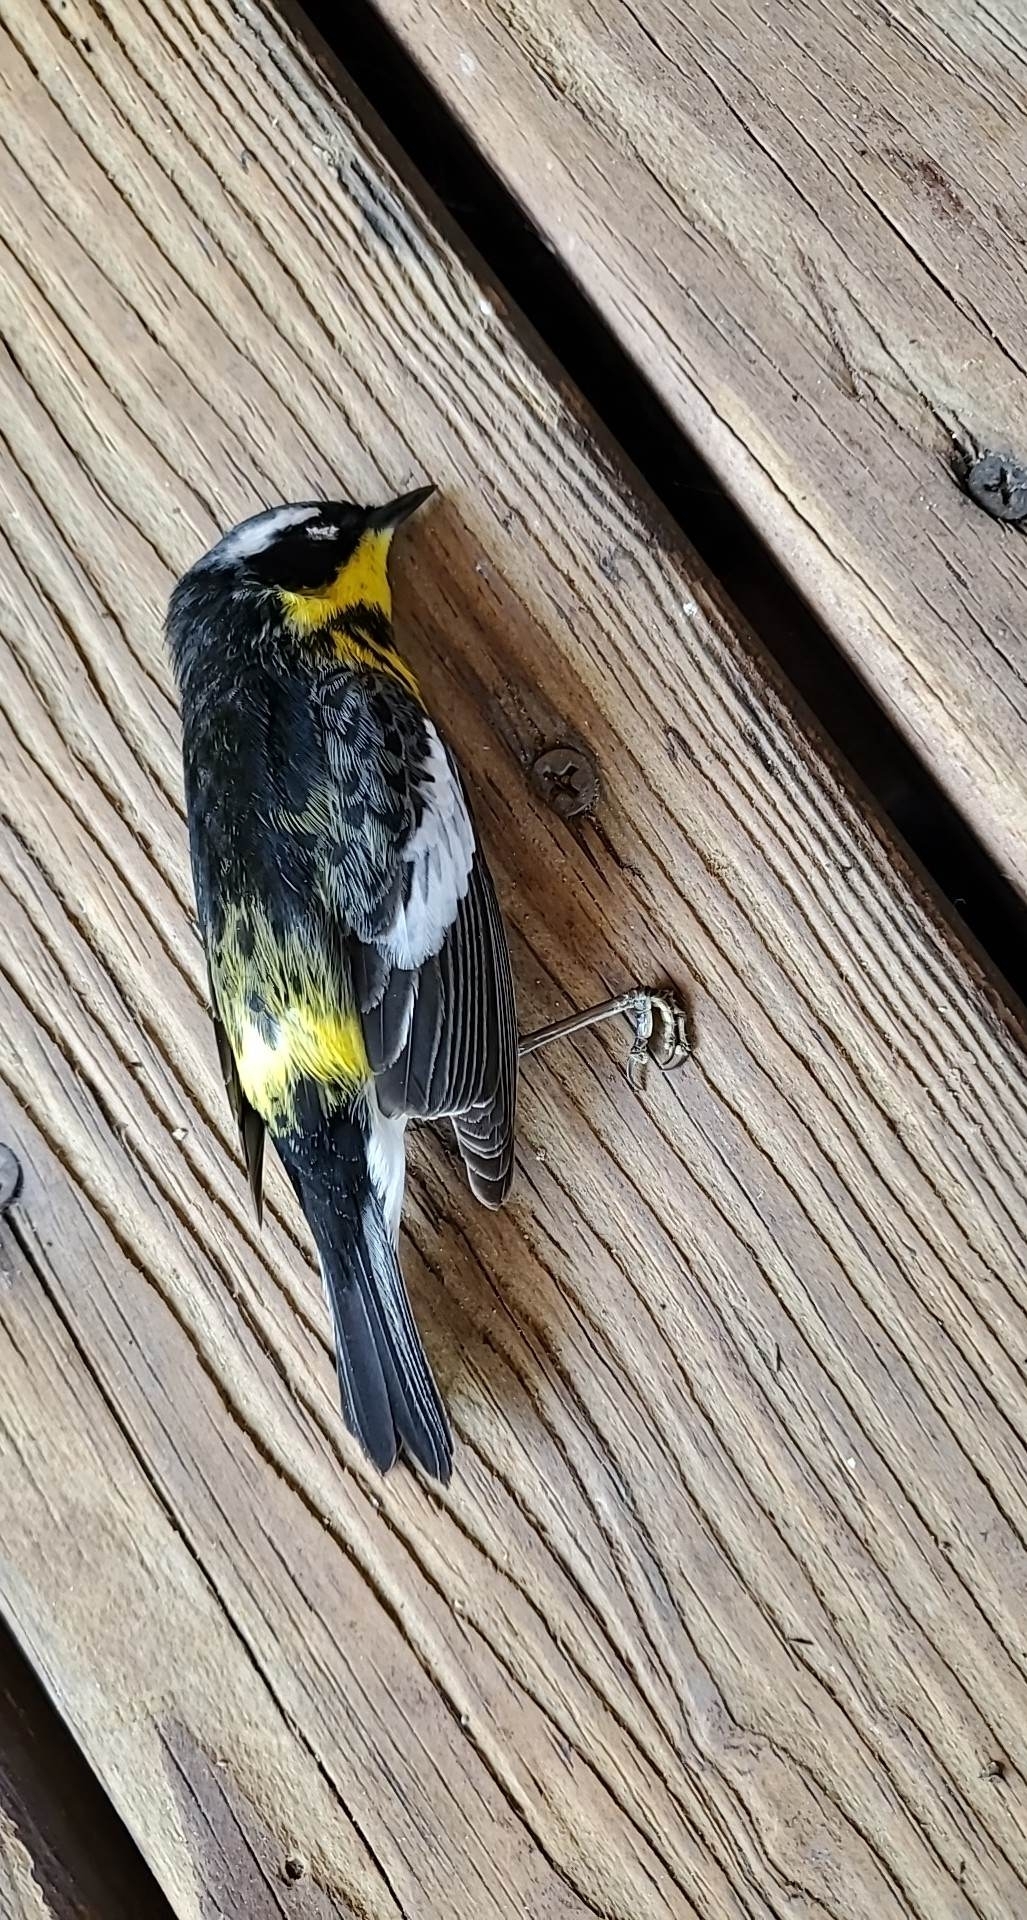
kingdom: Animalia
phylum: Chordata
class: Aves
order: Passeriformes
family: Parulidae
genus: Setophaga
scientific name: Setophaga magnolia
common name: Magnolia warbler
